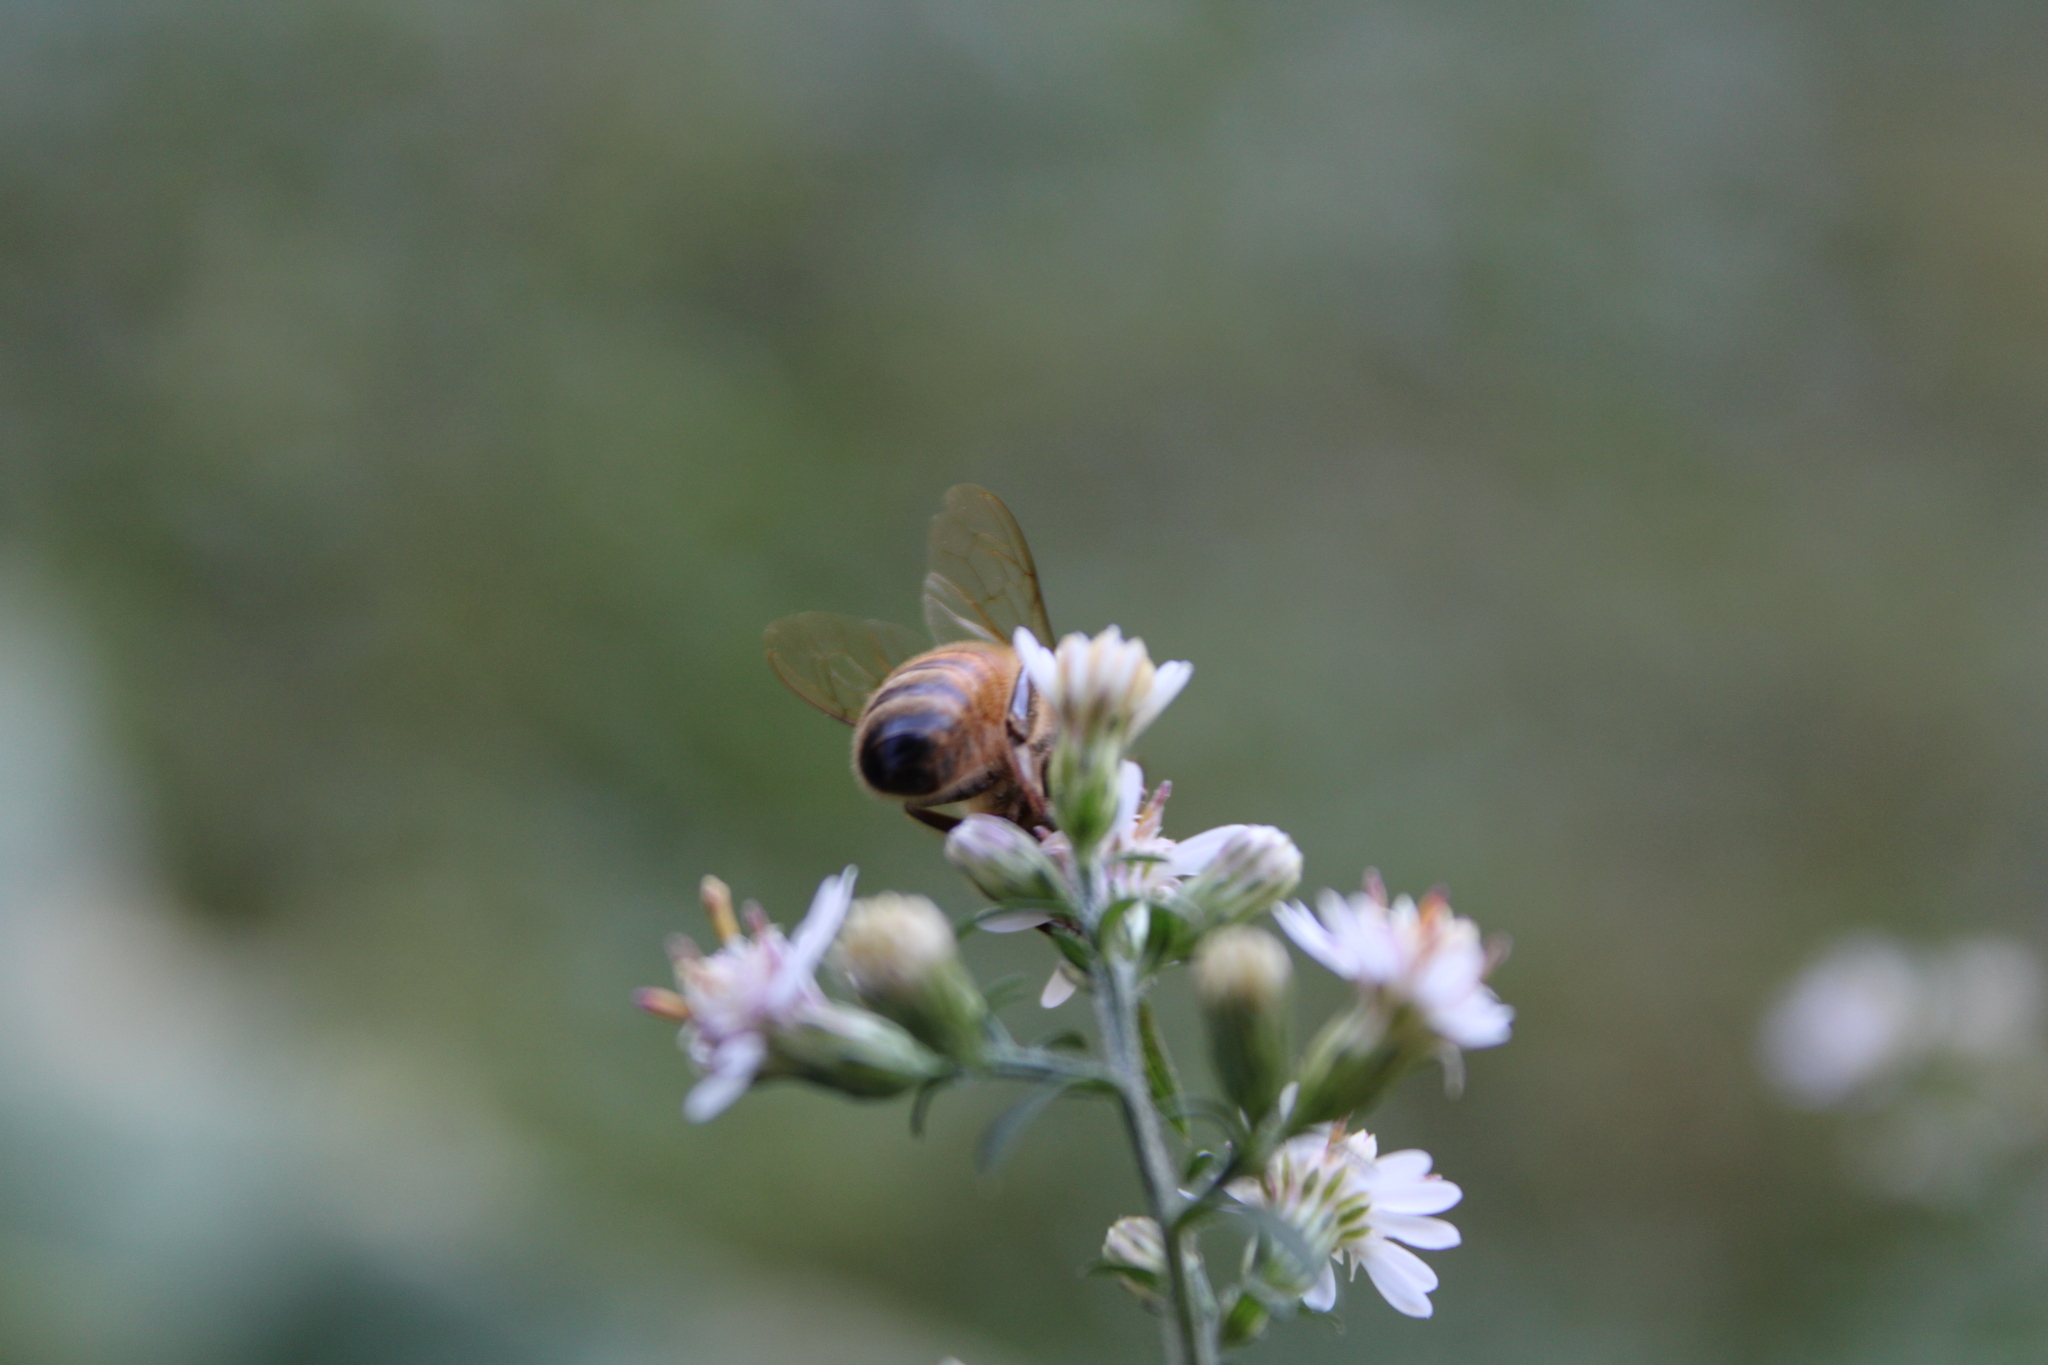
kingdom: Animalia
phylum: Arthropoda
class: Insecta
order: Hymenoptera
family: Apidae
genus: Apis
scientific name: Apis mellifera
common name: Honey bee
